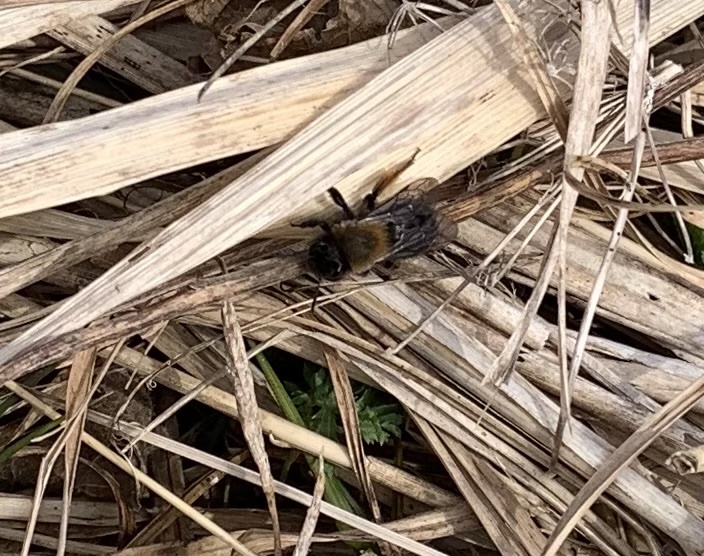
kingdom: Animalia
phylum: Arthropoda
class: Insecta
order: Hymenoptera
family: Andrenidae
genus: Andrena
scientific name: Andrena clarkella
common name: Clarke's mining bee
